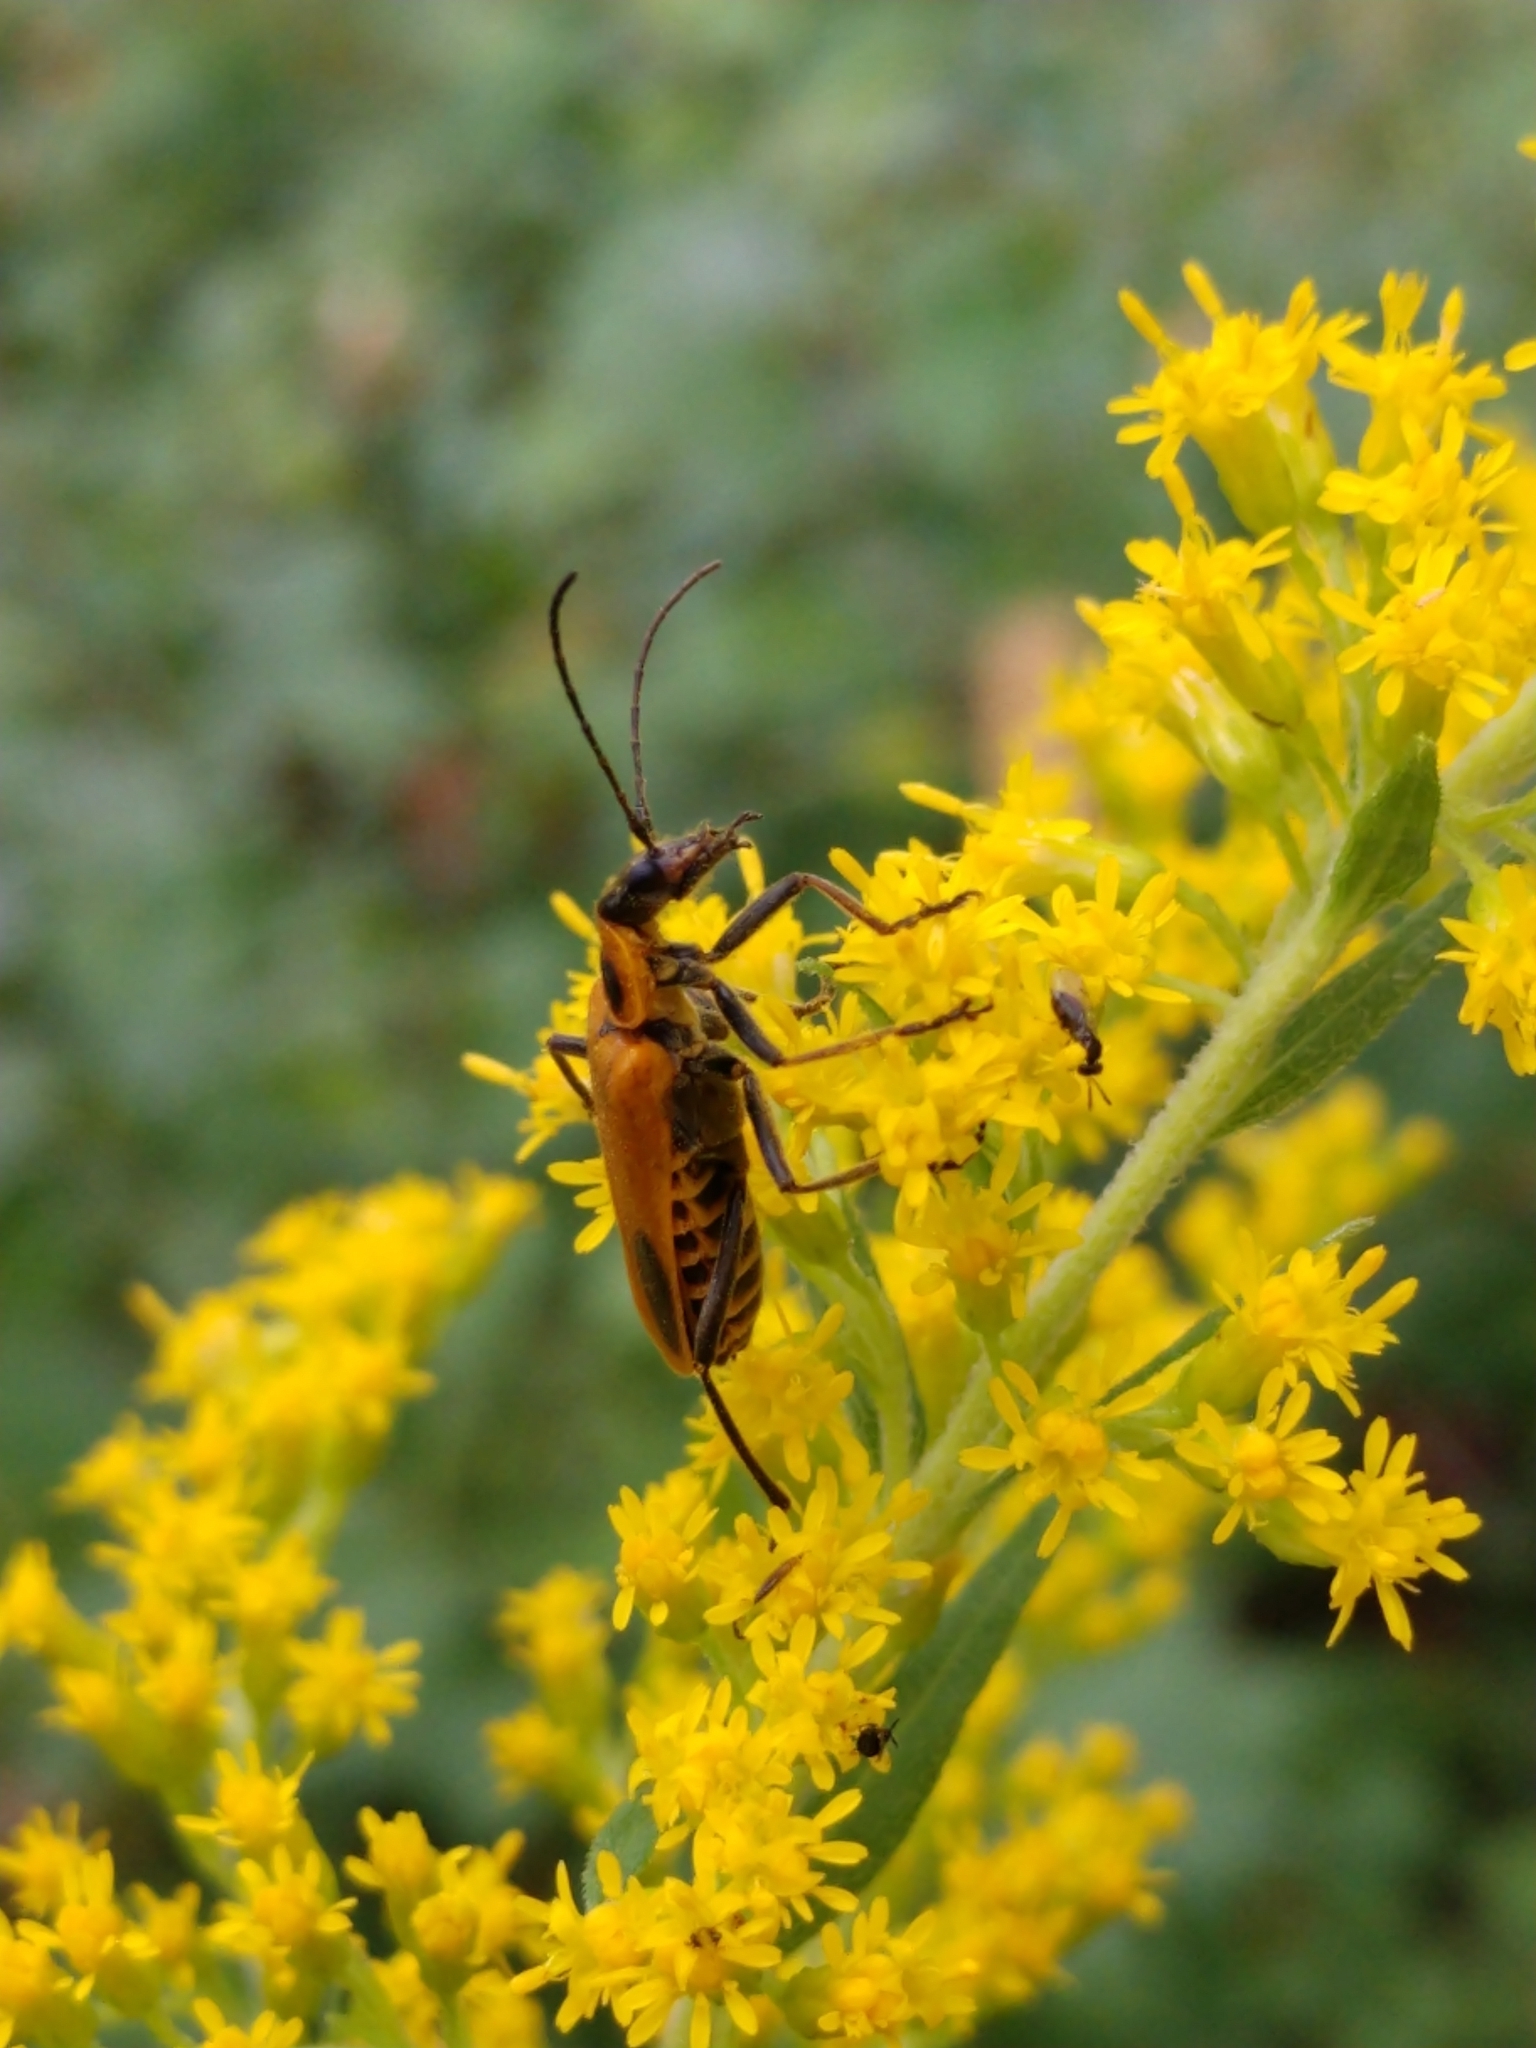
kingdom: Animalia
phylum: Arthropoda
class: Insecta
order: Coleoptera
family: Cantharidae
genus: Chauliognathus
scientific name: Chauliognathus pensylvanicus
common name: Goldenrod soldier beetle
